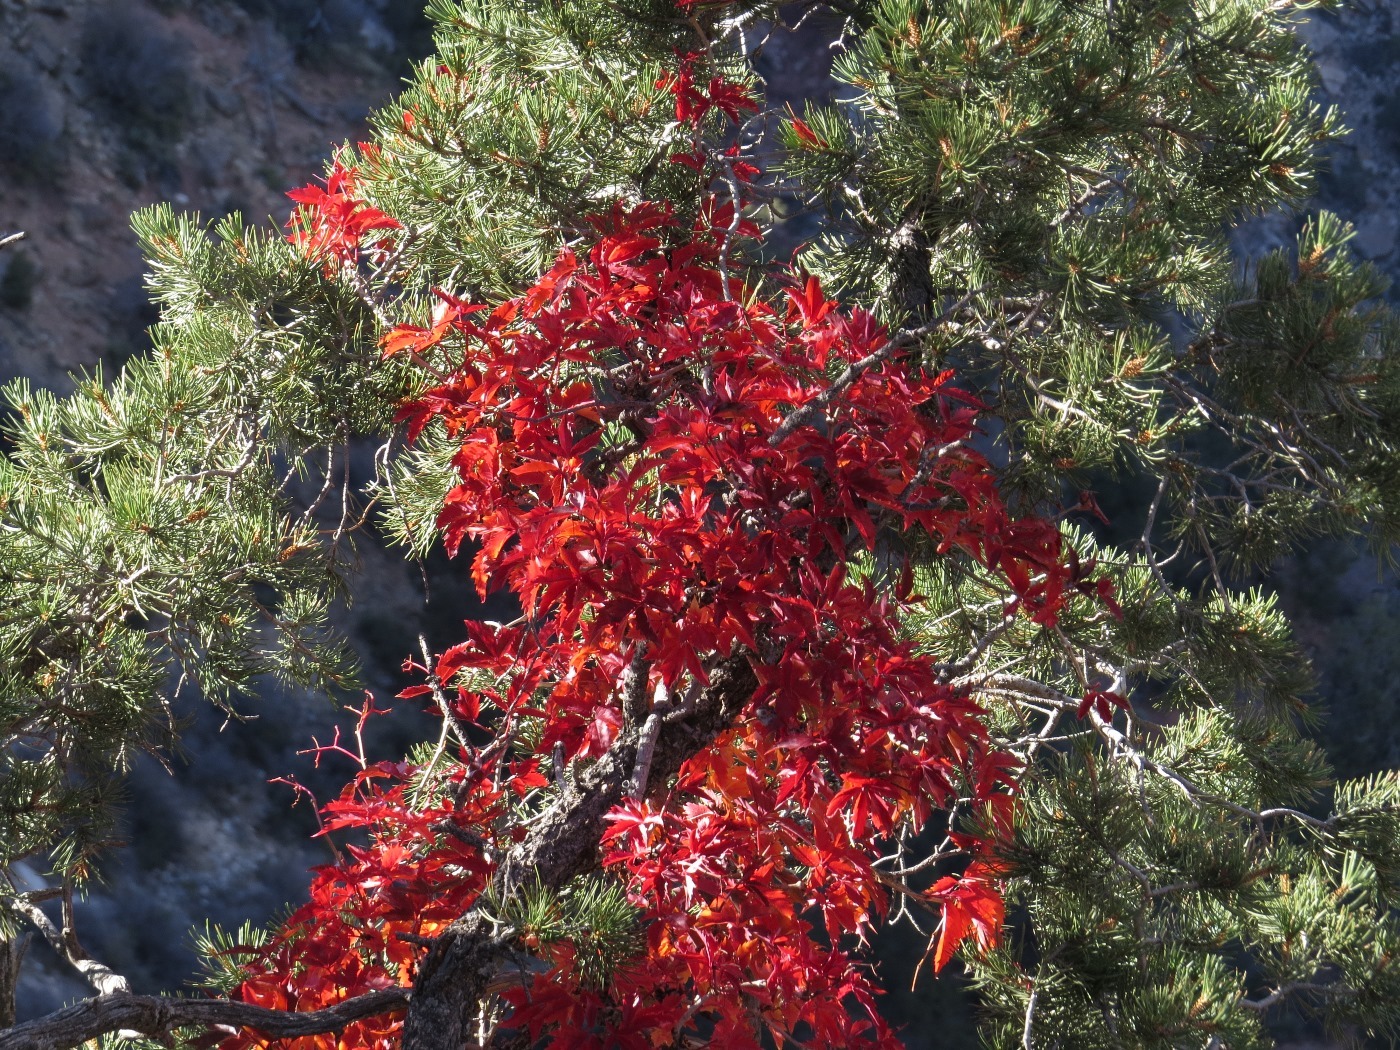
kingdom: Plantae
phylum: Tracheophyta
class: Magnoliopsida
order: Vitales
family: Vitaceae
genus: Parthenocissus
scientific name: Parthenocissus inserta
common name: False virginia-creeper
